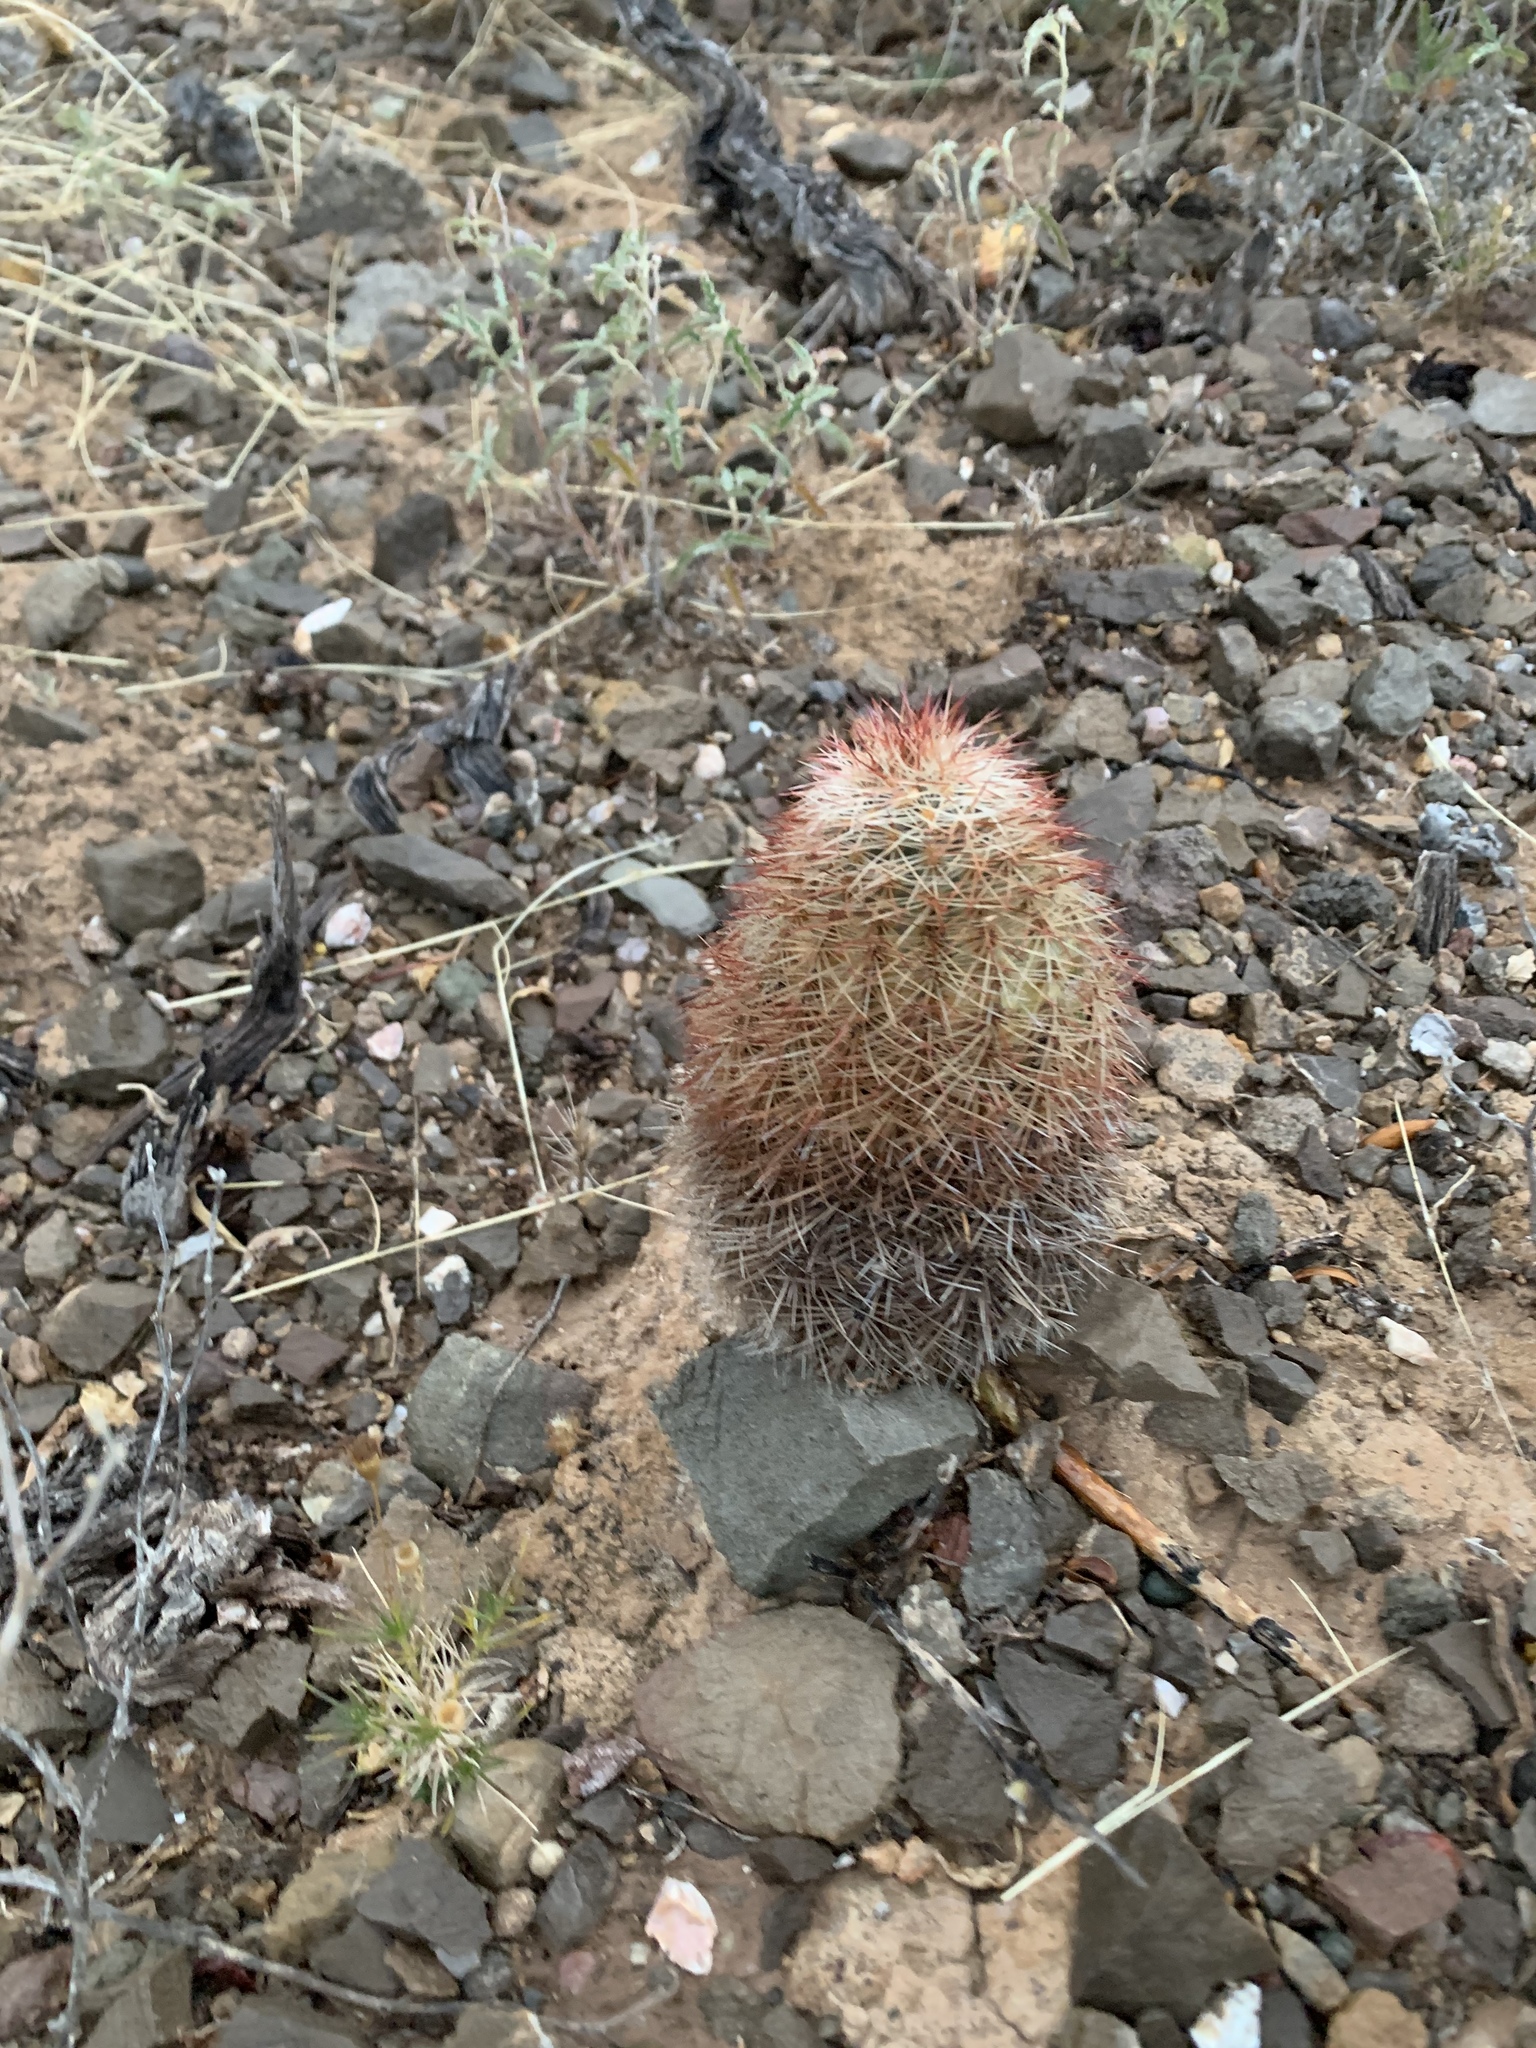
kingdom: Plantae
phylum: Tracheophyta
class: Magnoliopsida
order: Caryophyllales
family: Cactaceae
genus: Echinocereus
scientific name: Echinocereus dasyacanthus
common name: Spiny hedgehog cactus
